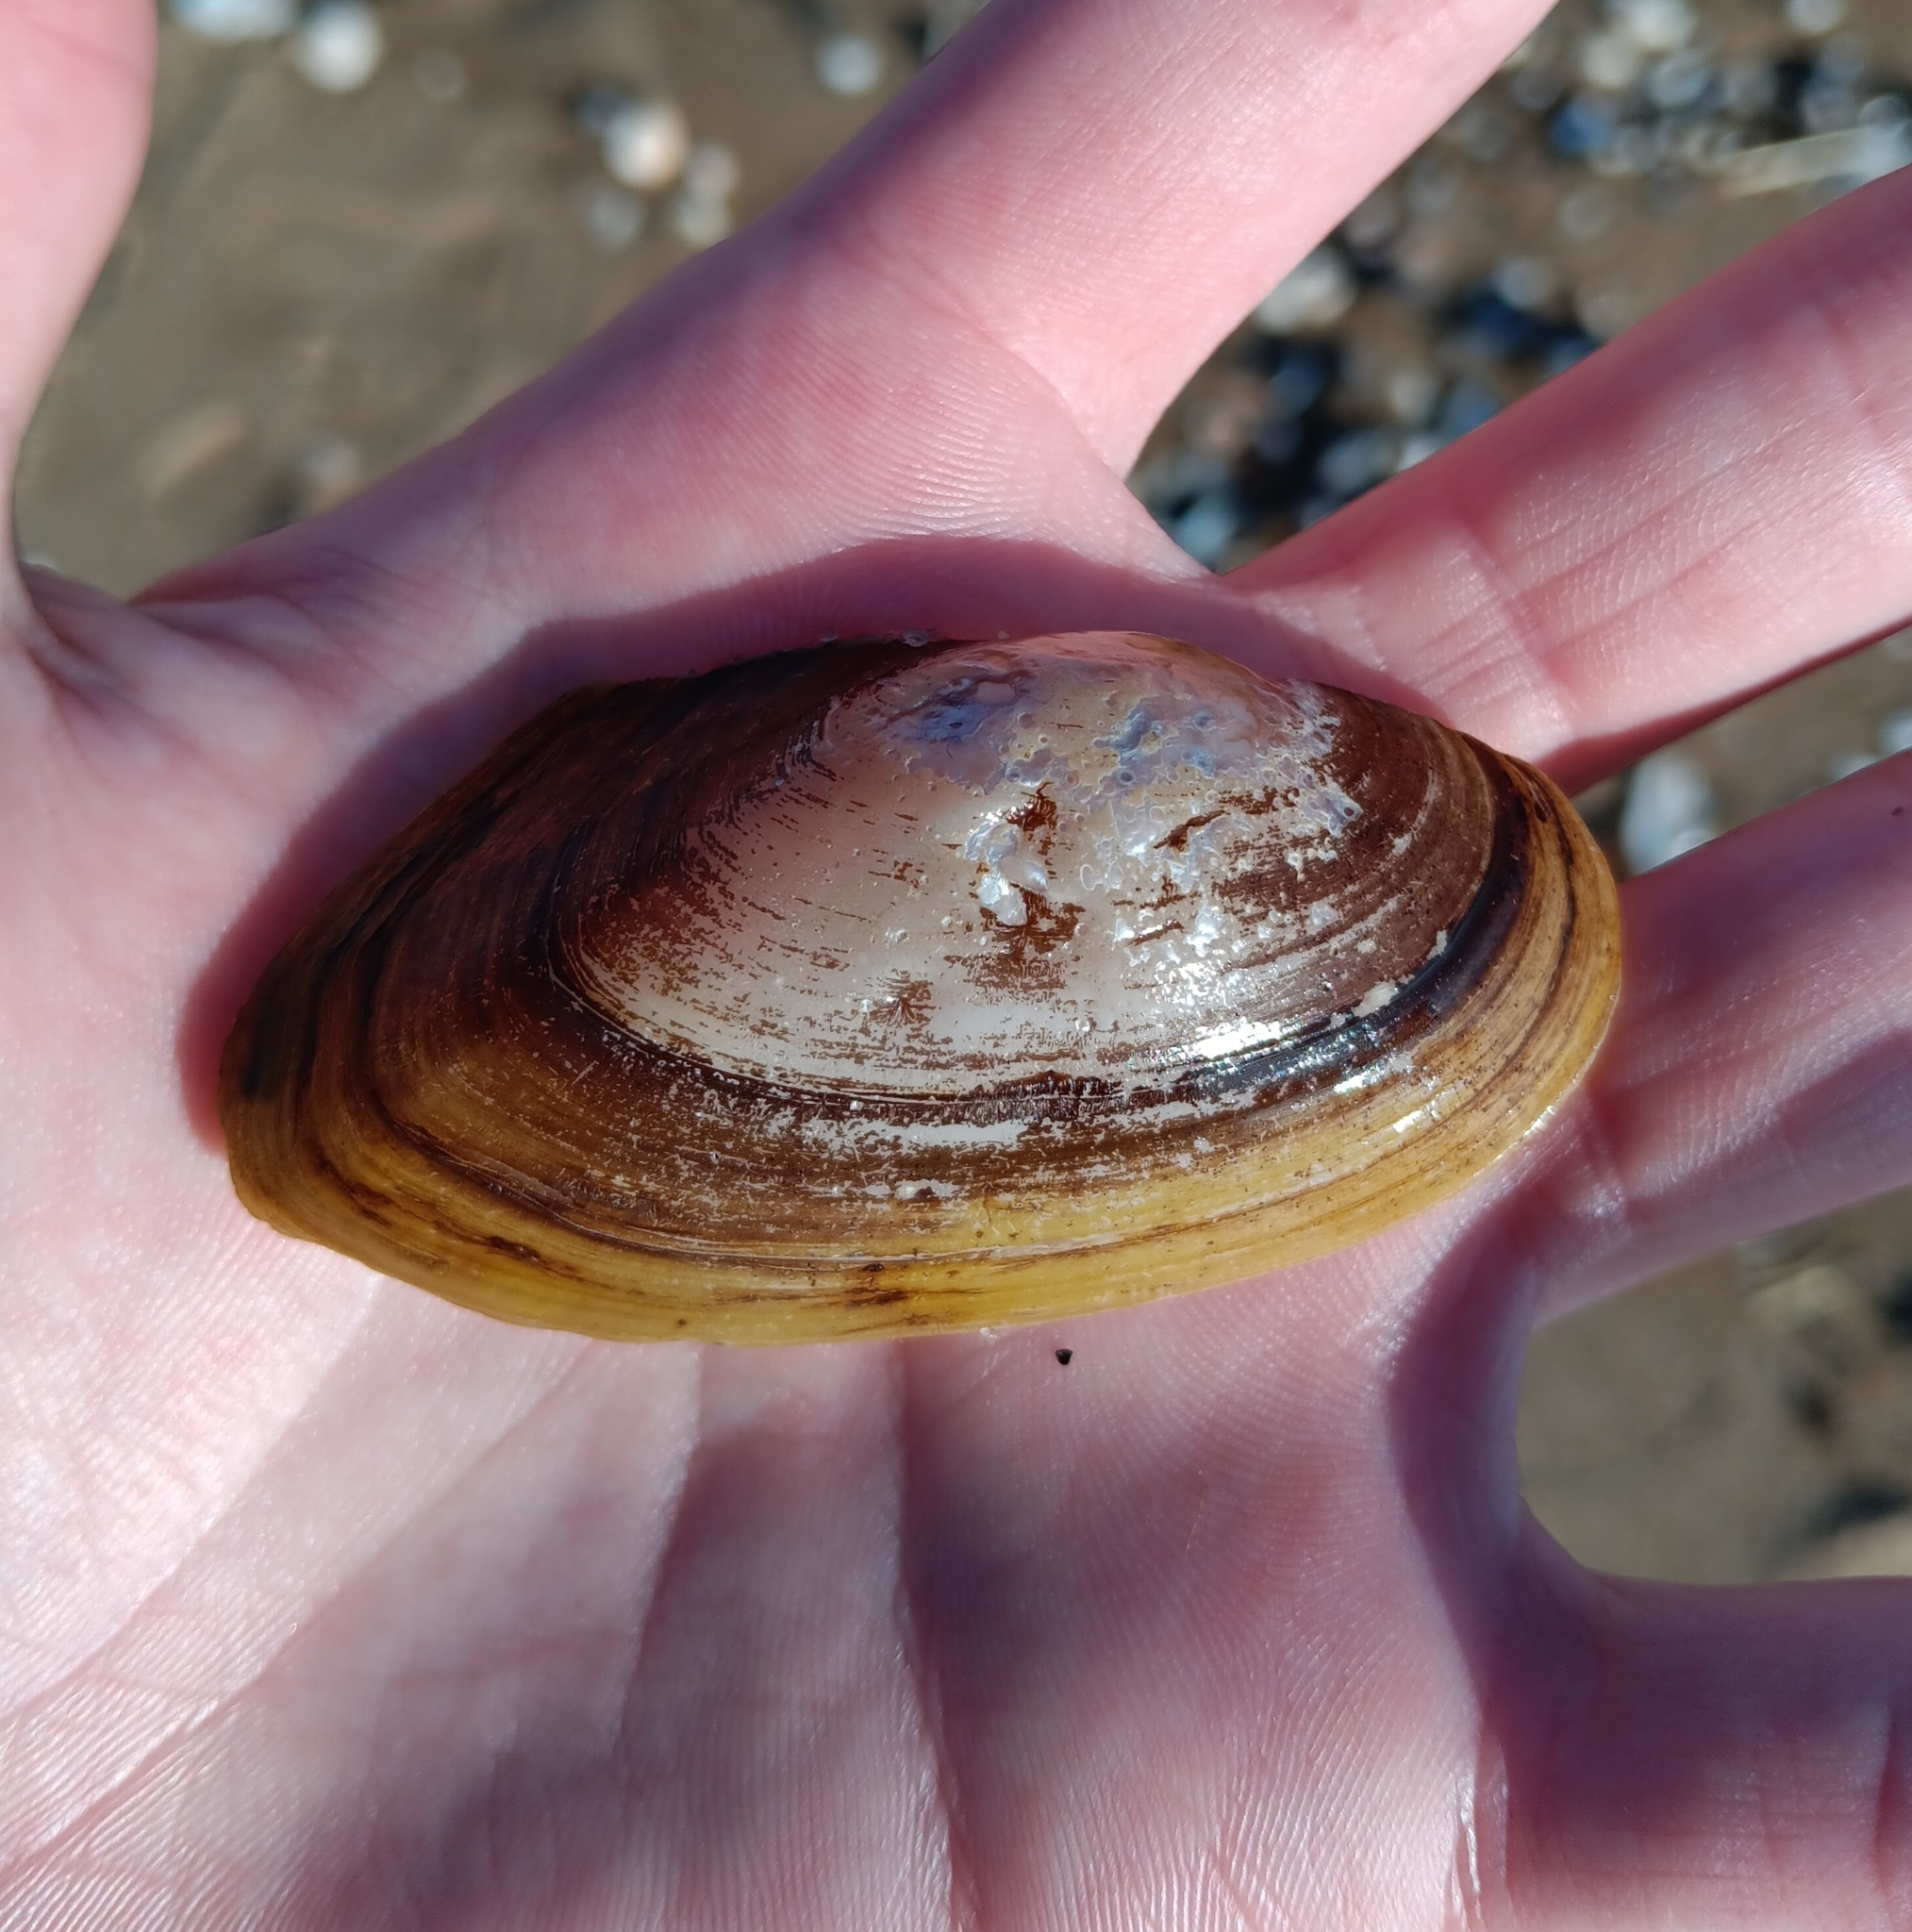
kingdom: Animalia
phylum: Mollusca
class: Bivalvia
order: Unionida
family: Unionidae
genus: Utterbackiana
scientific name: Utterbackiana implicata
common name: Alewife floater
